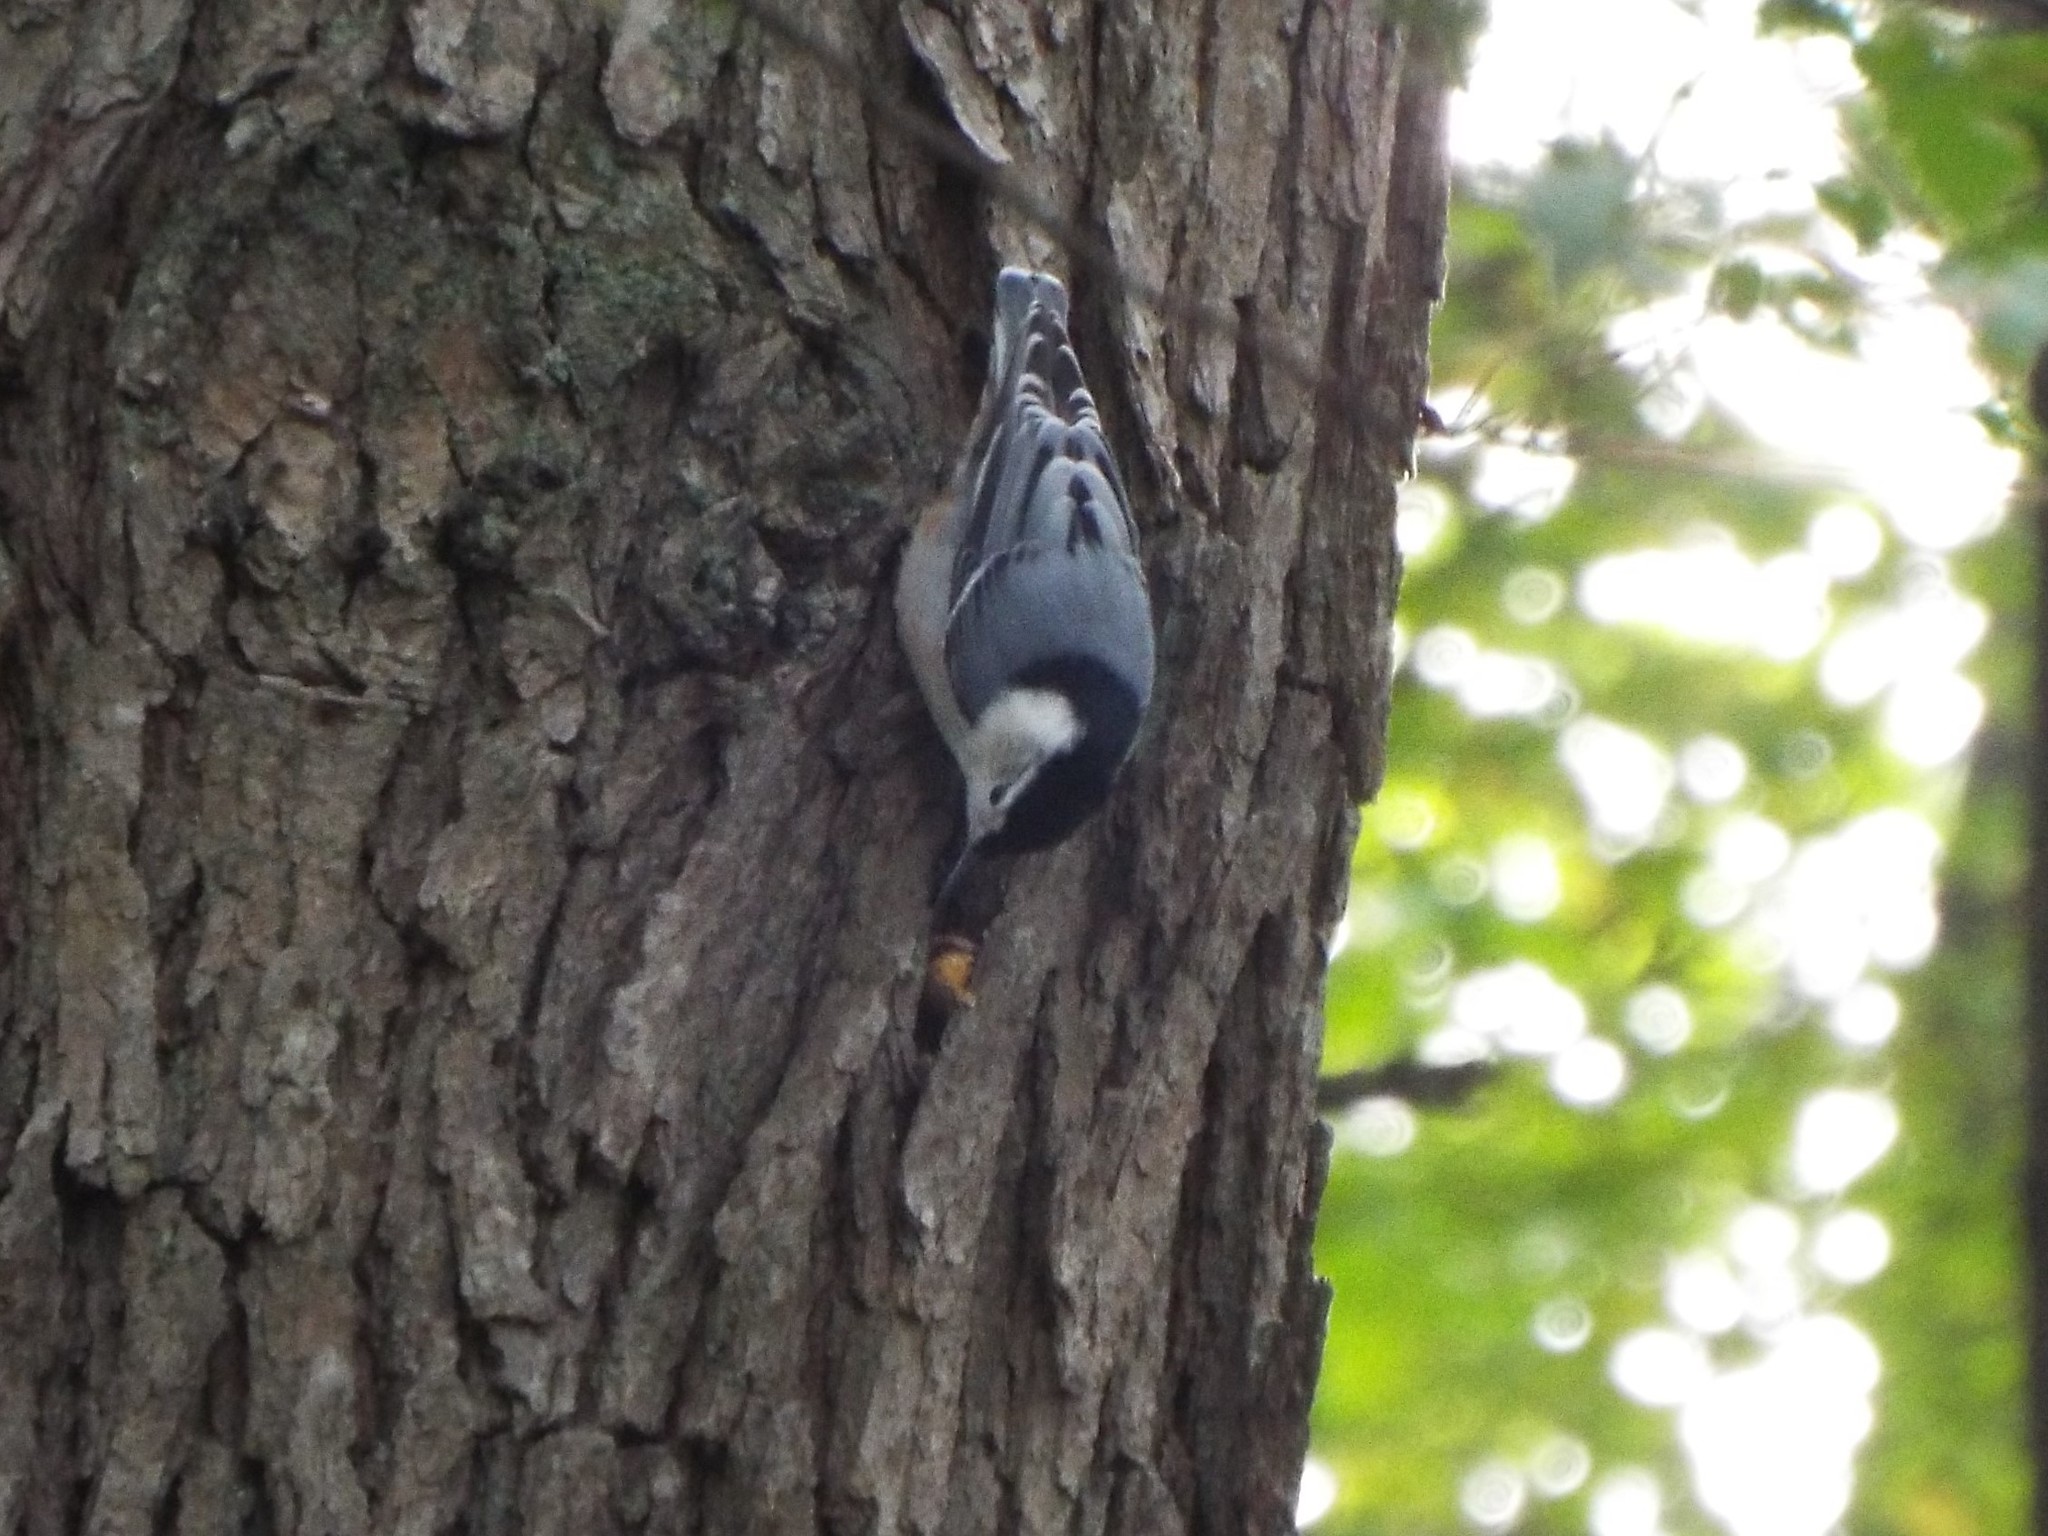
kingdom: Animalia
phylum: Chordata
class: Aves
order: Passeriformes
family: Sittidae
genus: Sitta
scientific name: Sitta carolinensis
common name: White-breasted nuthatch
